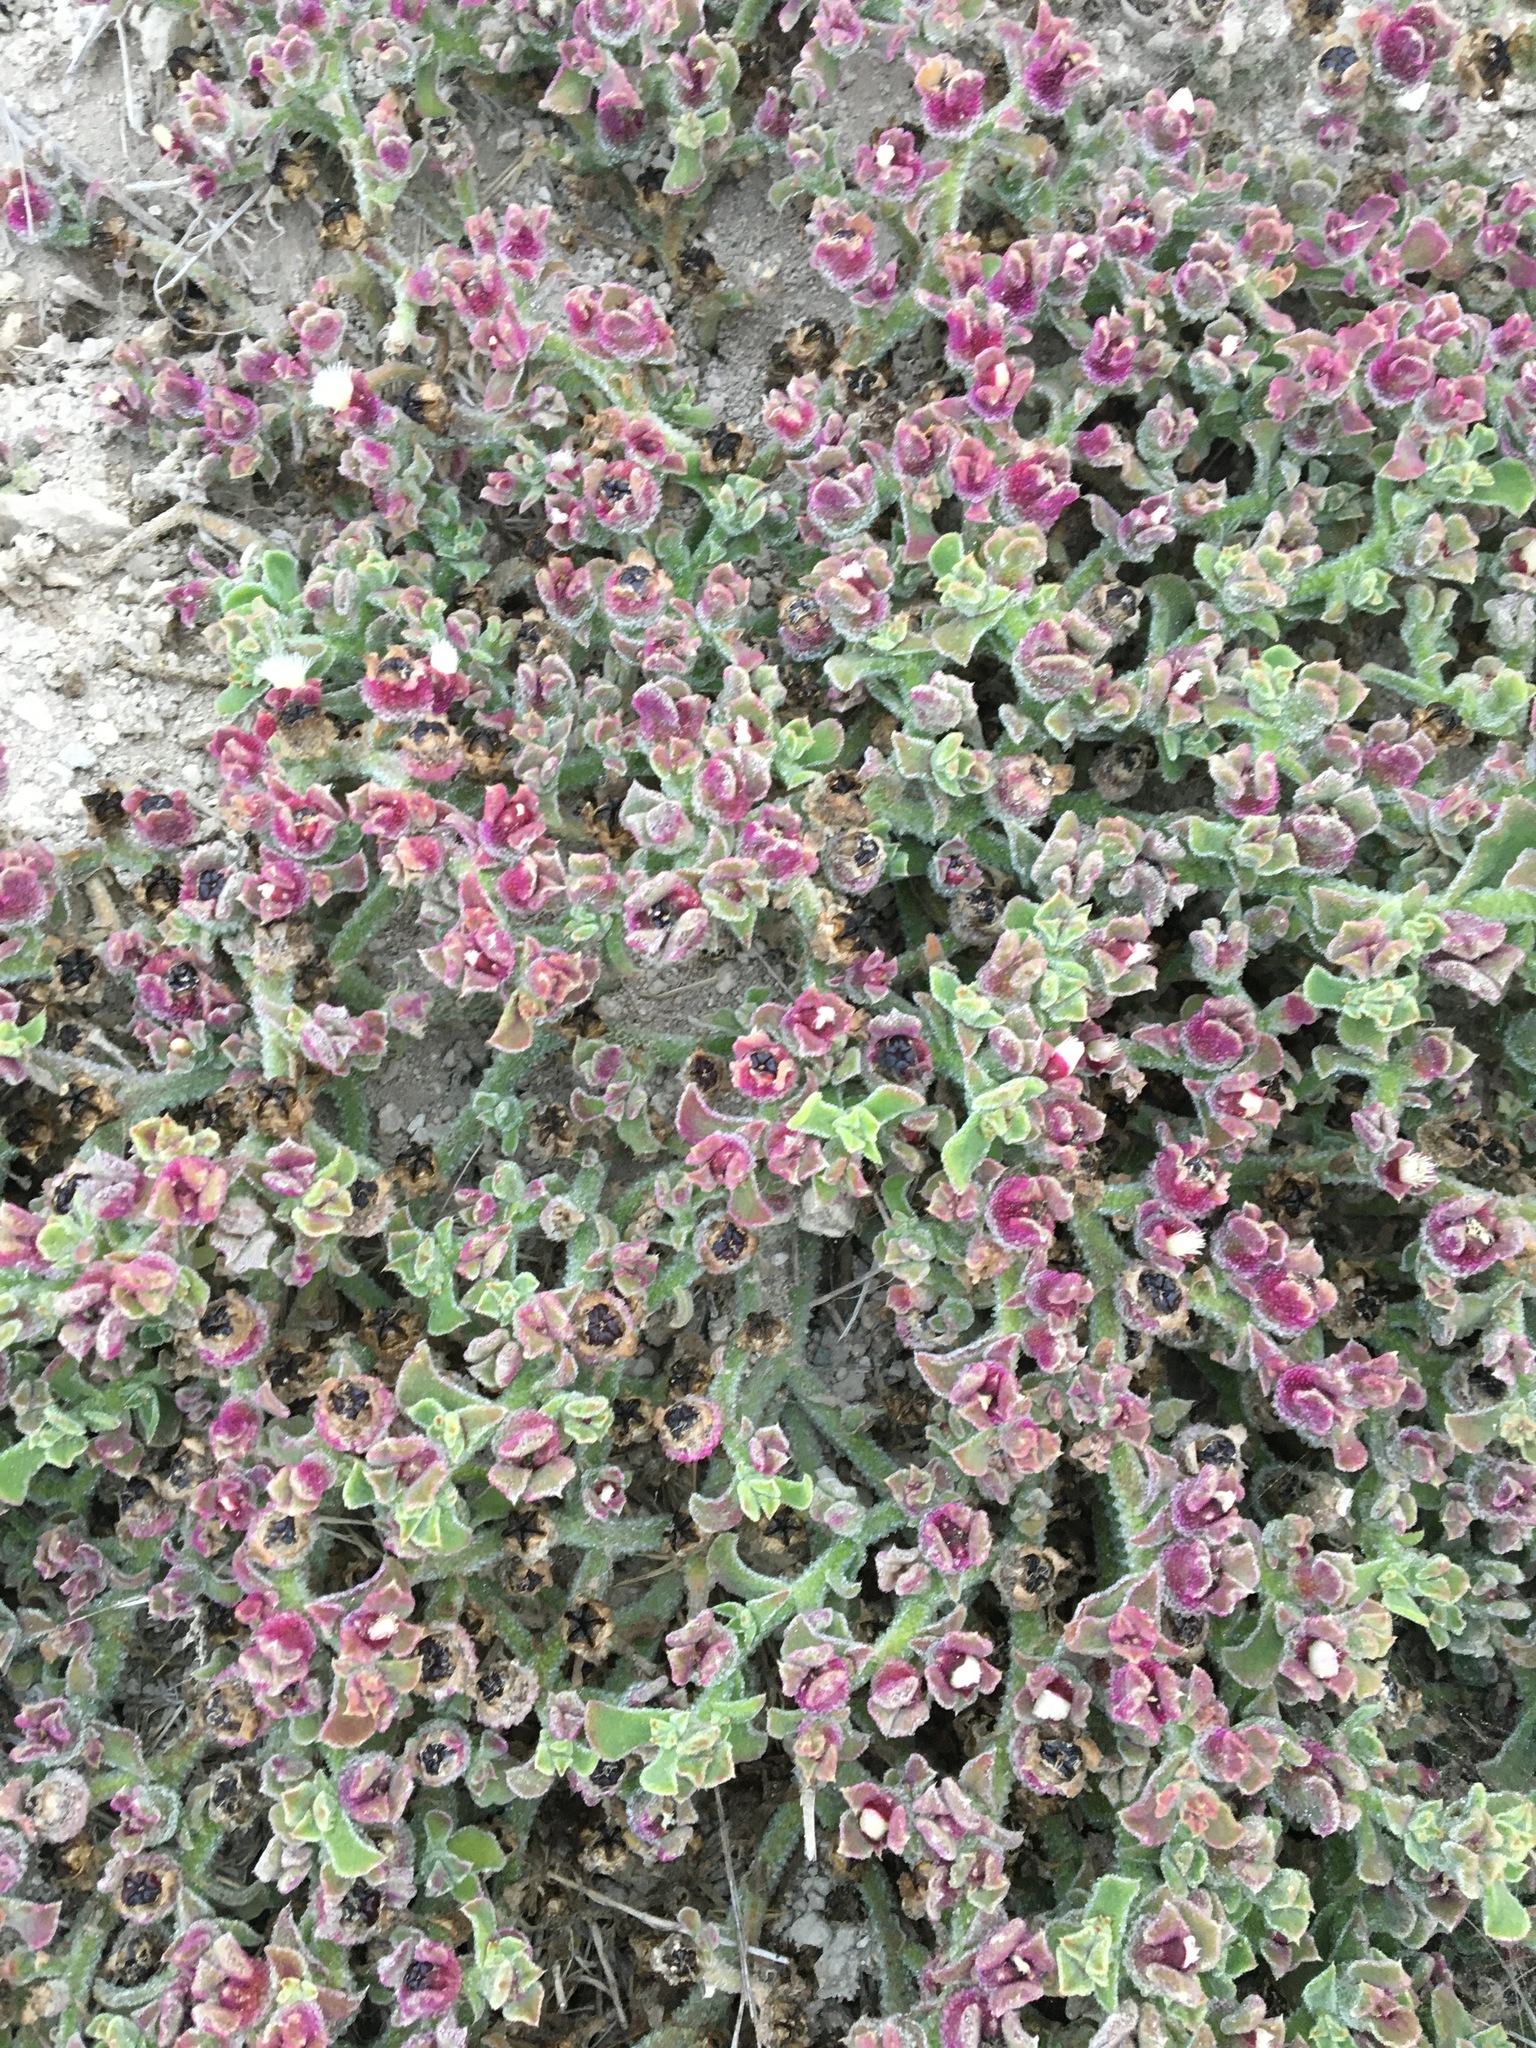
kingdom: Plantae
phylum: Tracheophyta
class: Magnoliopsida
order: Caryophyllales
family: Aizoaceae
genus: Mesembryanthemum
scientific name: Mesembryanthemum crystallinum
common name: Common iceplant
